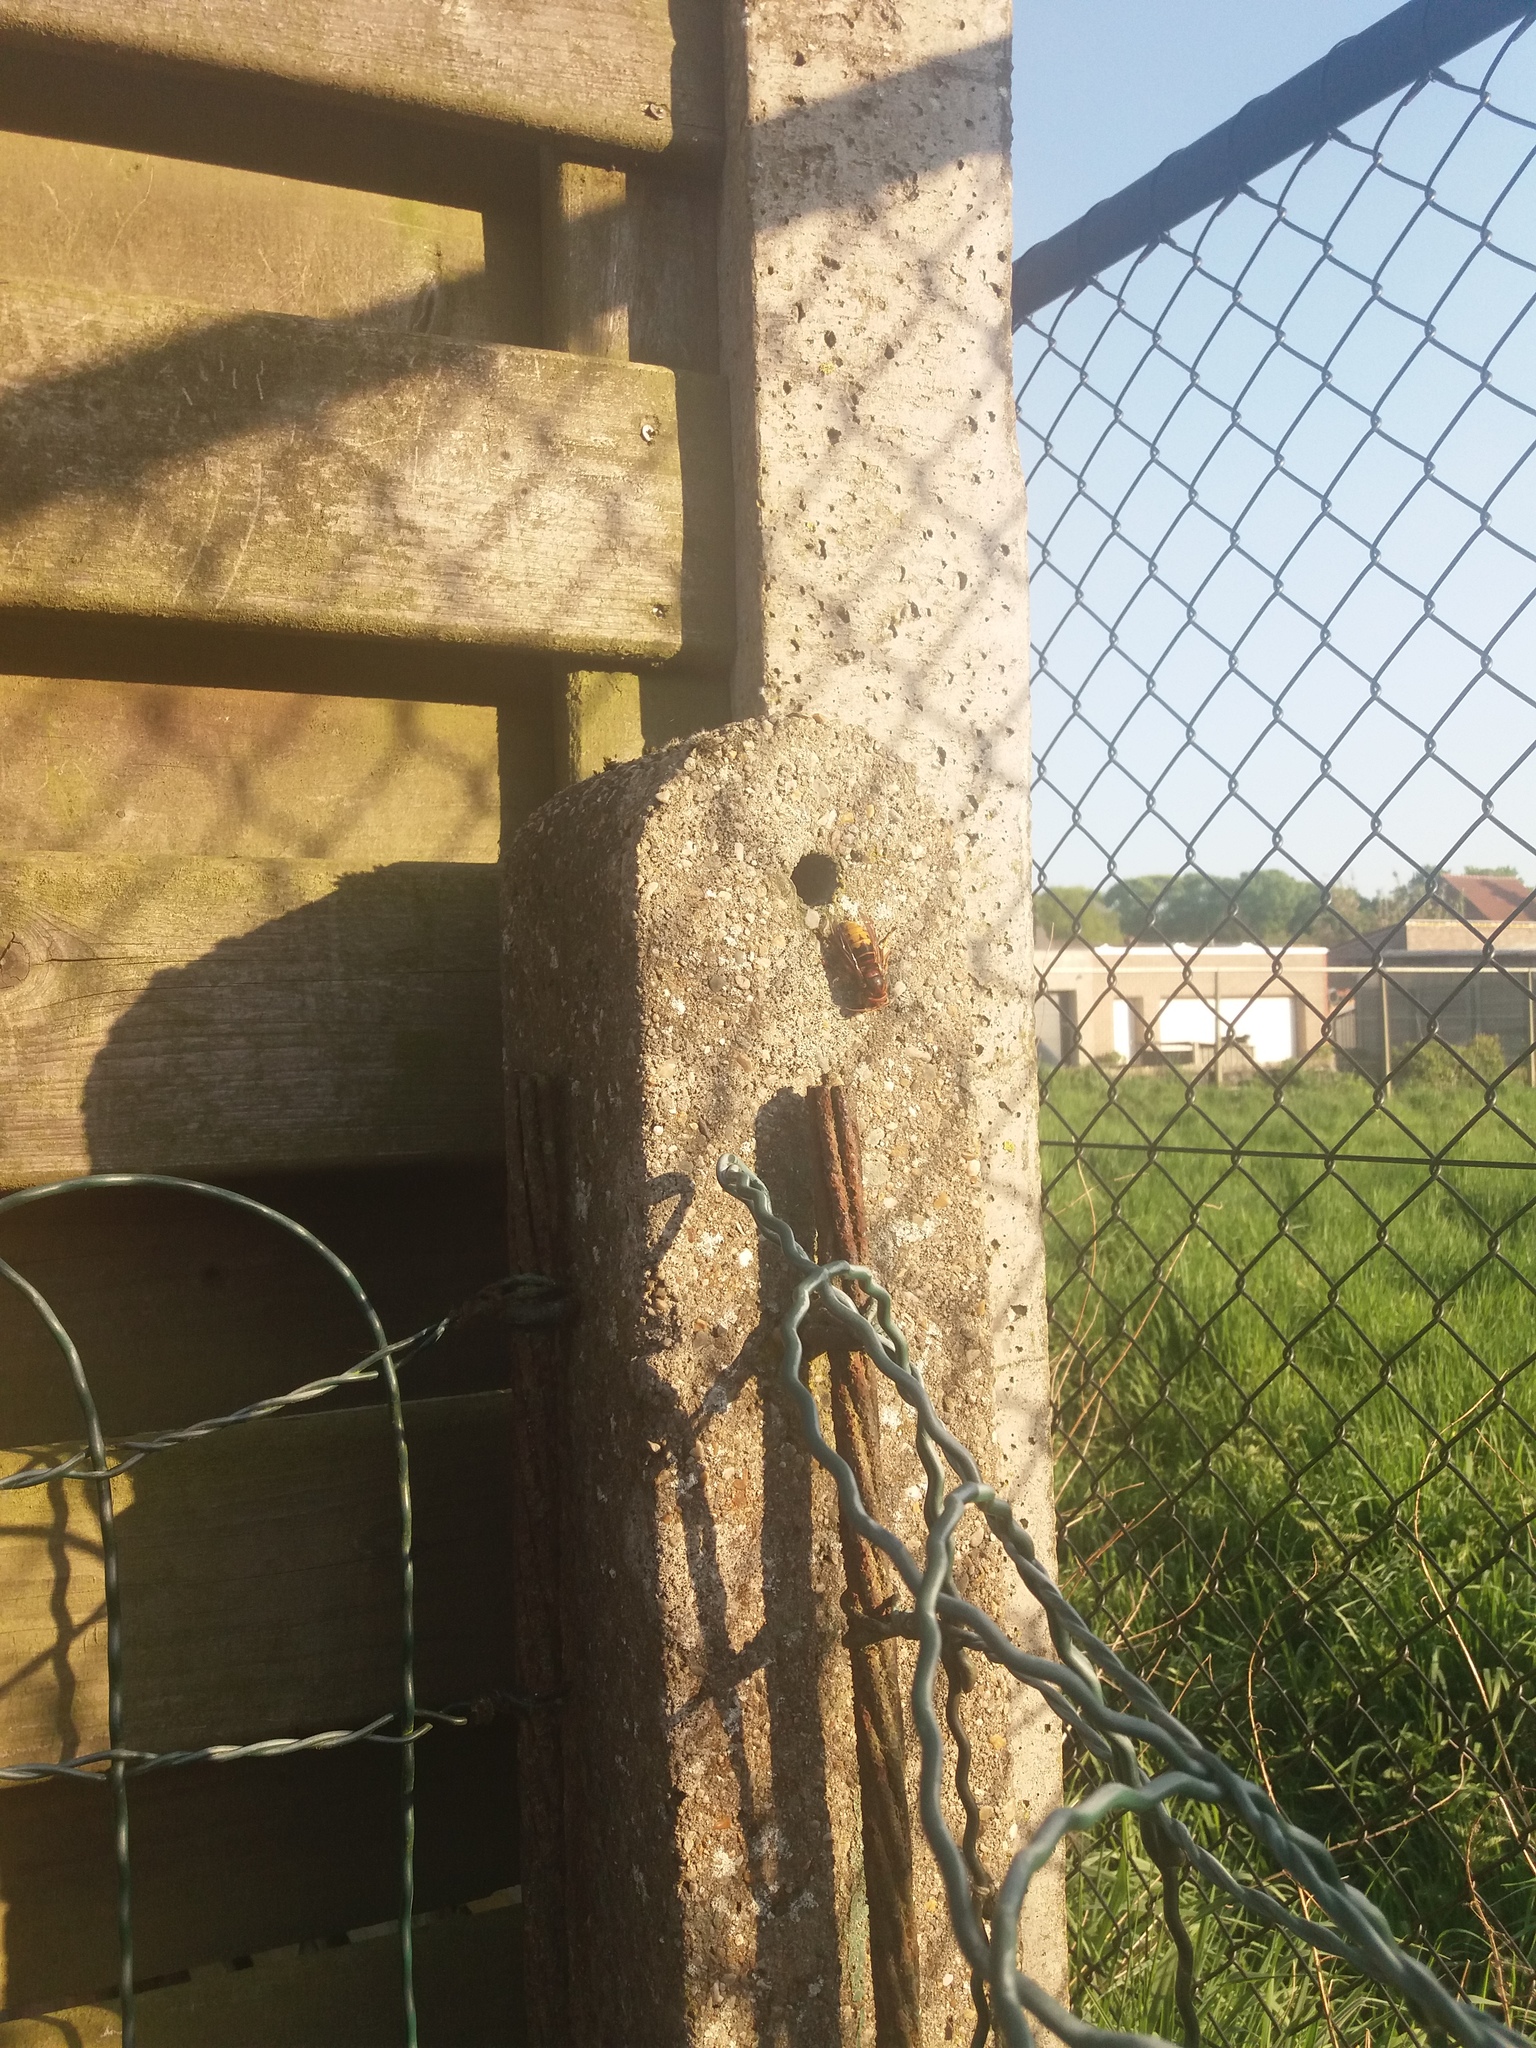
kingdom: Animalia
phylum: Arthropoda
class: Insecta
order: Hymenoptera
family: Vespidae
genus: Vespa
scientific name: Vespa crabro
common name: Hornet
